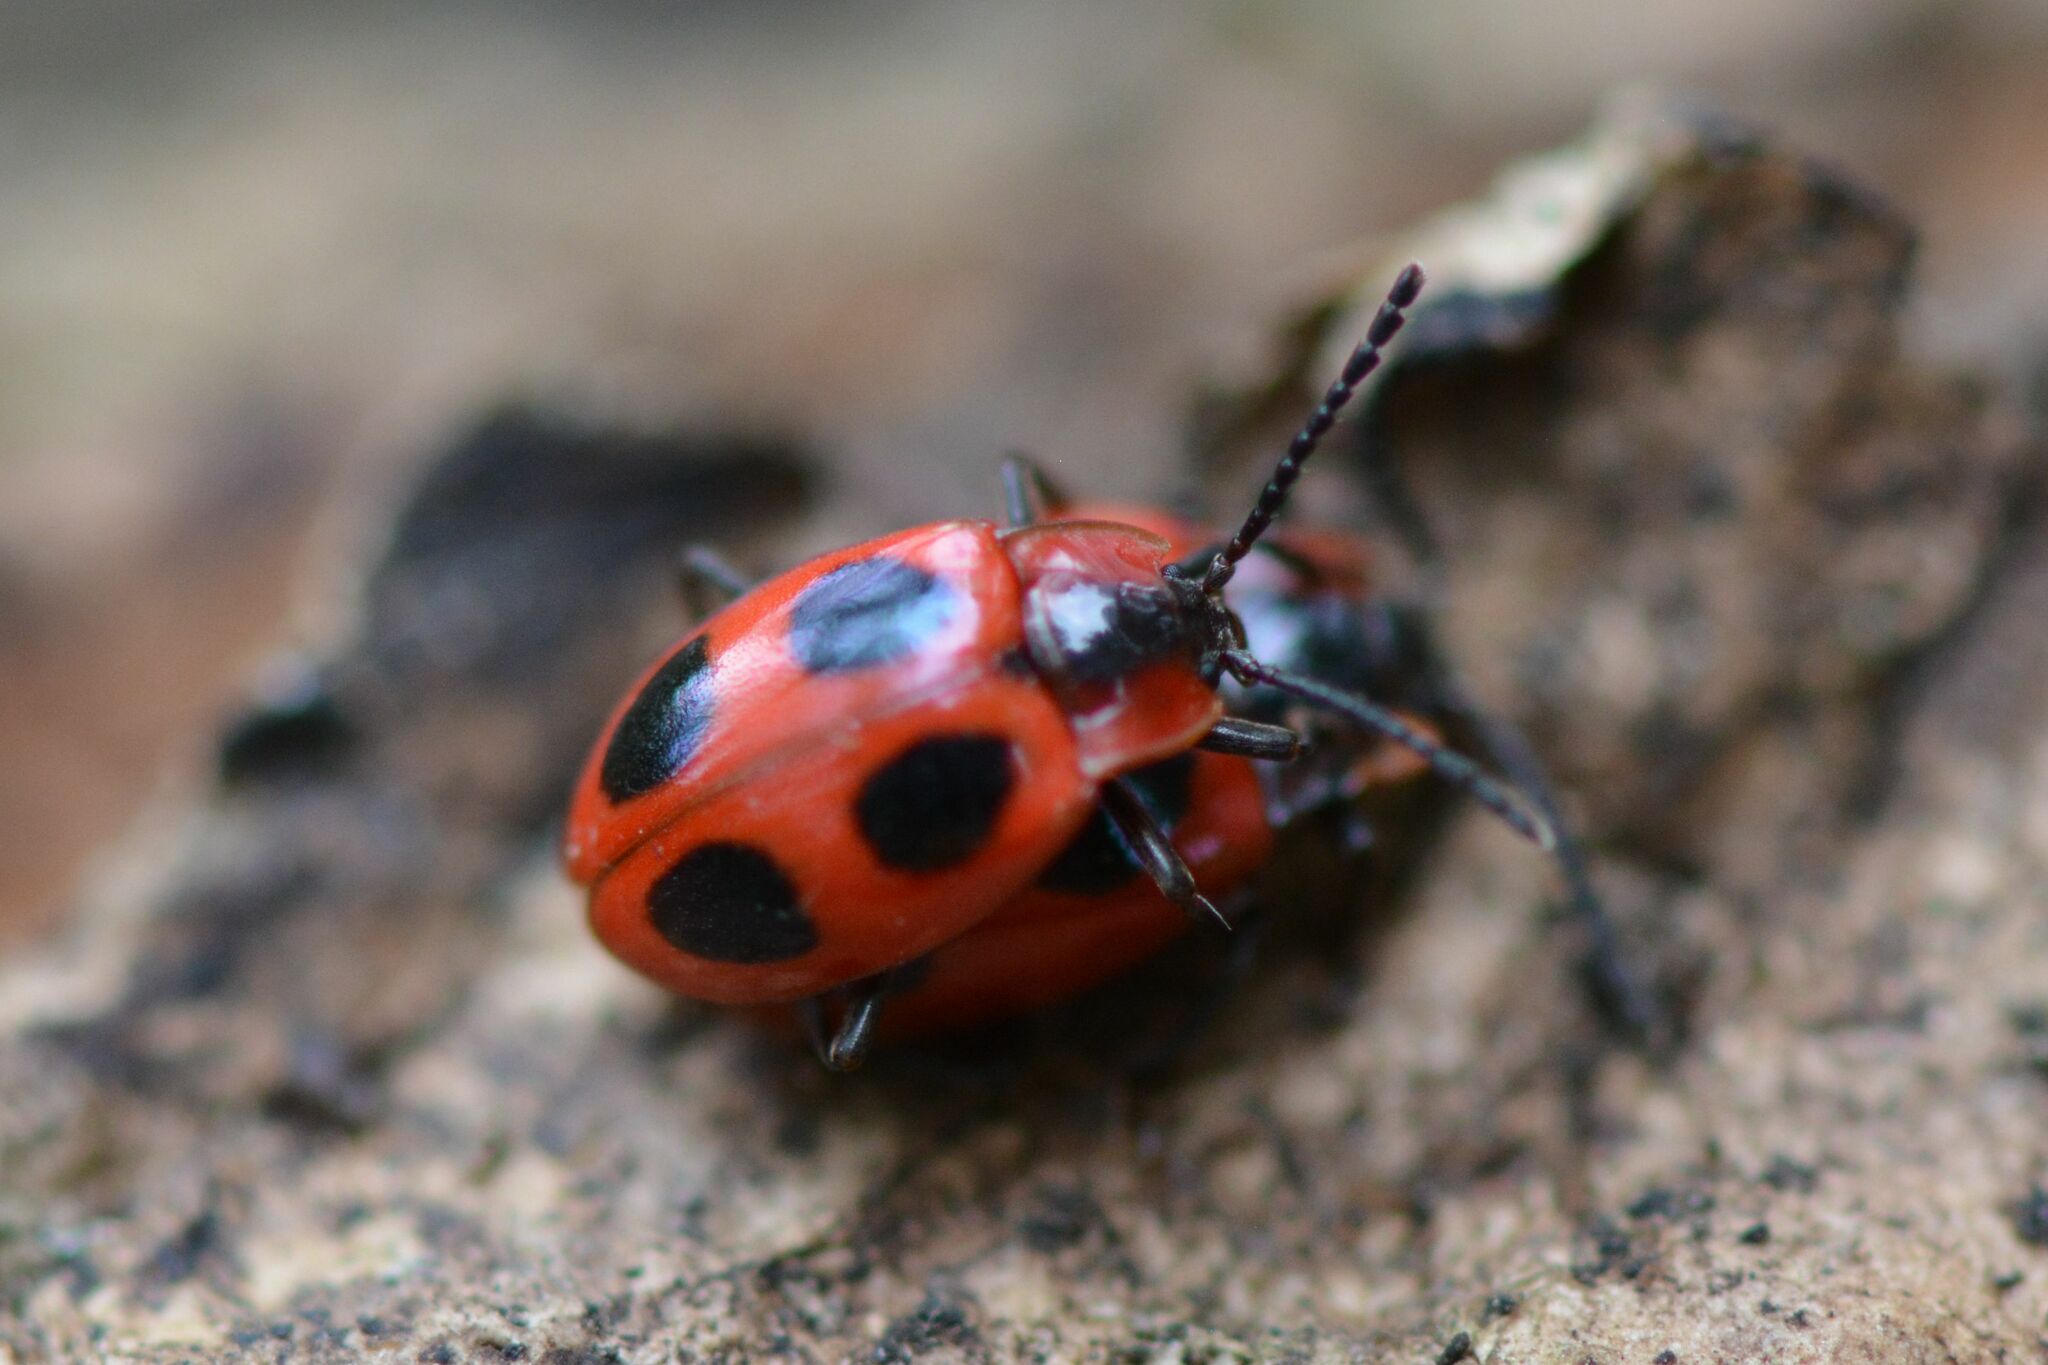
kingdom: Animalia
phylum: Arthropoda
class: Insecta
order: Coleoptera
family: Endomychidae
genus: Endomychus
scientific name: Endomychus coccineus
